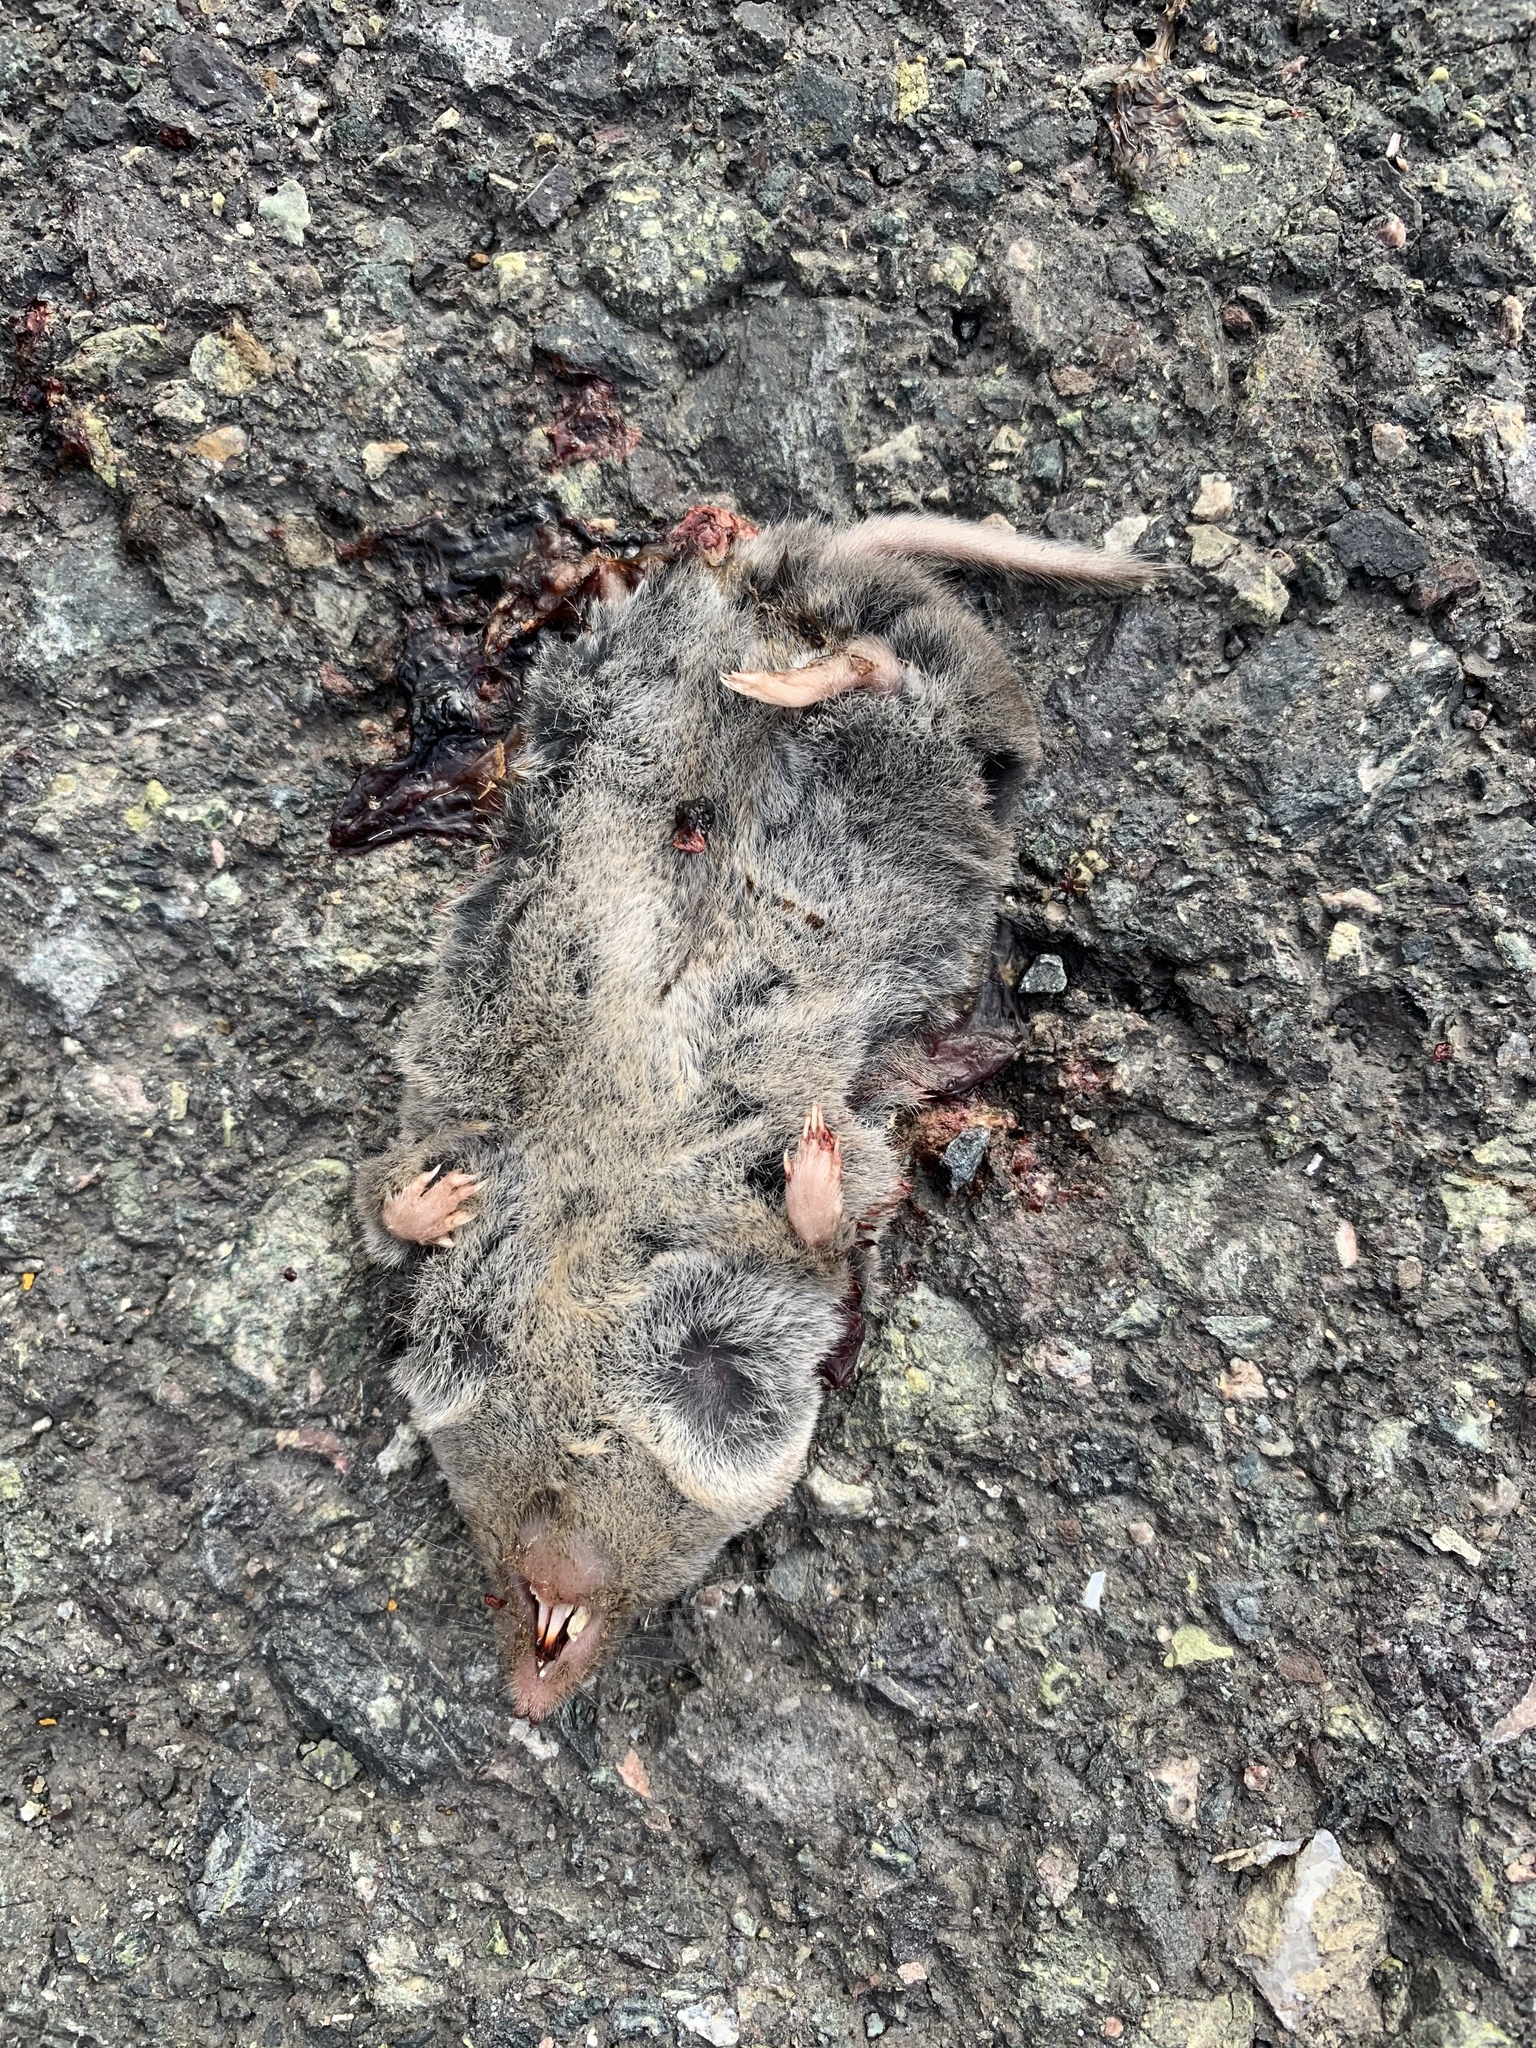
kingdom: Animalia
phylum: Chordata
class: Mammalia
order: Soricomorpha
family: Soricidae
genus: Blarina
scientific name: Blarina brevicauda
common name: Northern short-tailed shrew
